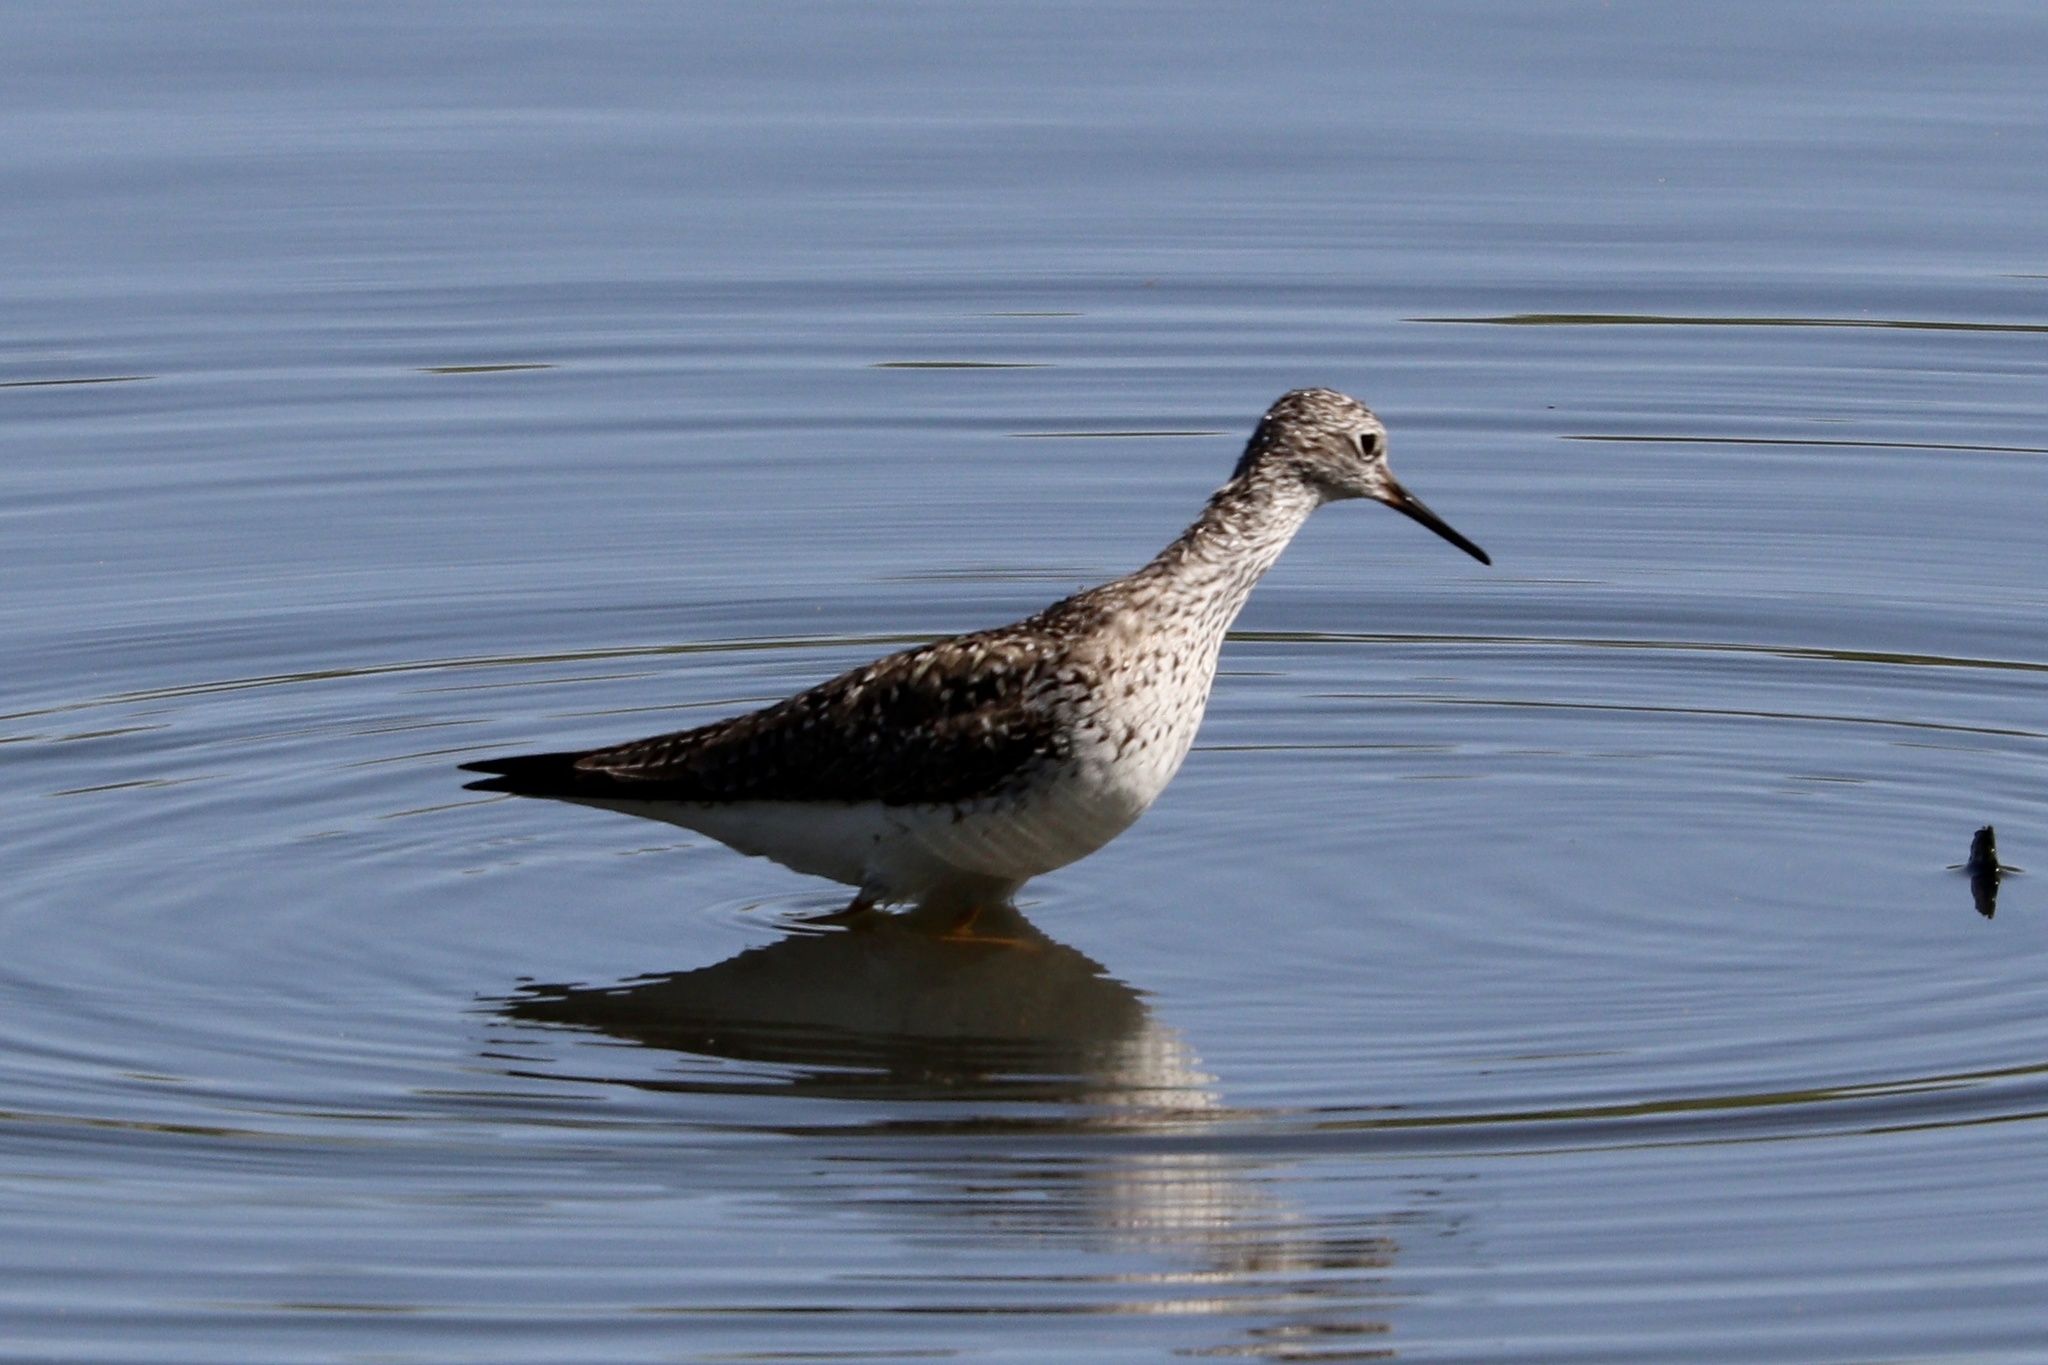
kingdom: Animalia
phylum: Chordata
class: Aves
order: Charadriiformes
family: Scolopacidae
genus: Tringa
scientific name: Tringa flavipes
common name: Lesser yellowlegs
